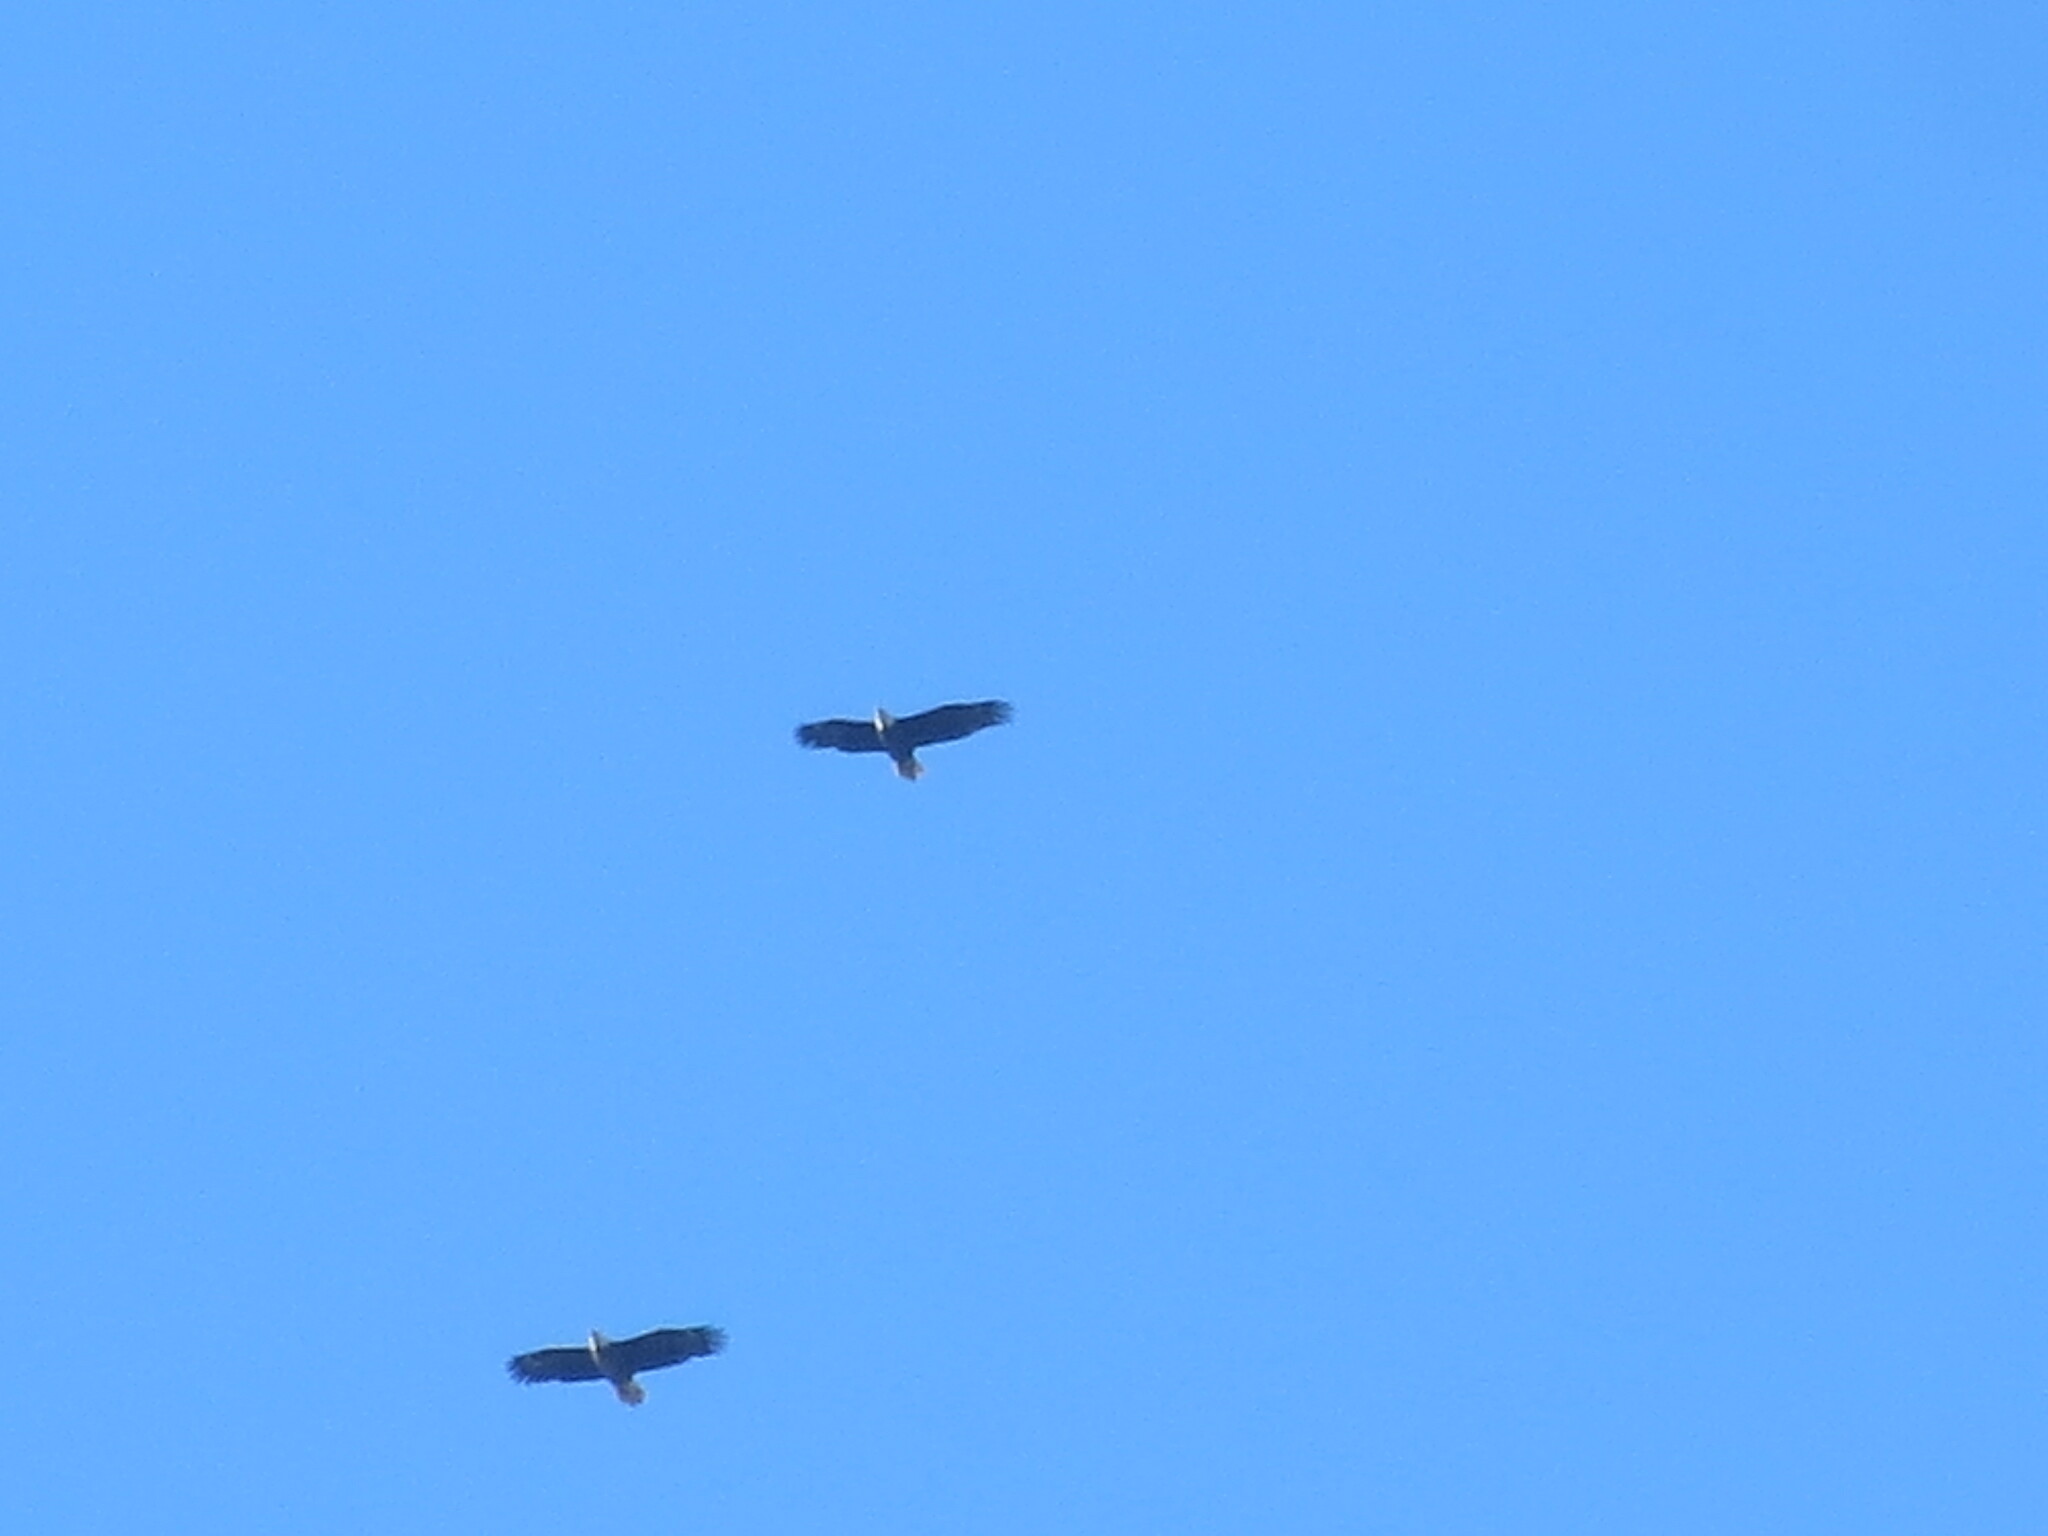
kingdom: Animalia
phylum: Chordata
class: Aves
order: Accipitriformes
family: Accipitridae
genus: Haliaeetus
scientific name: Haliaeetus leucocephalus
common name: Bald eagle
